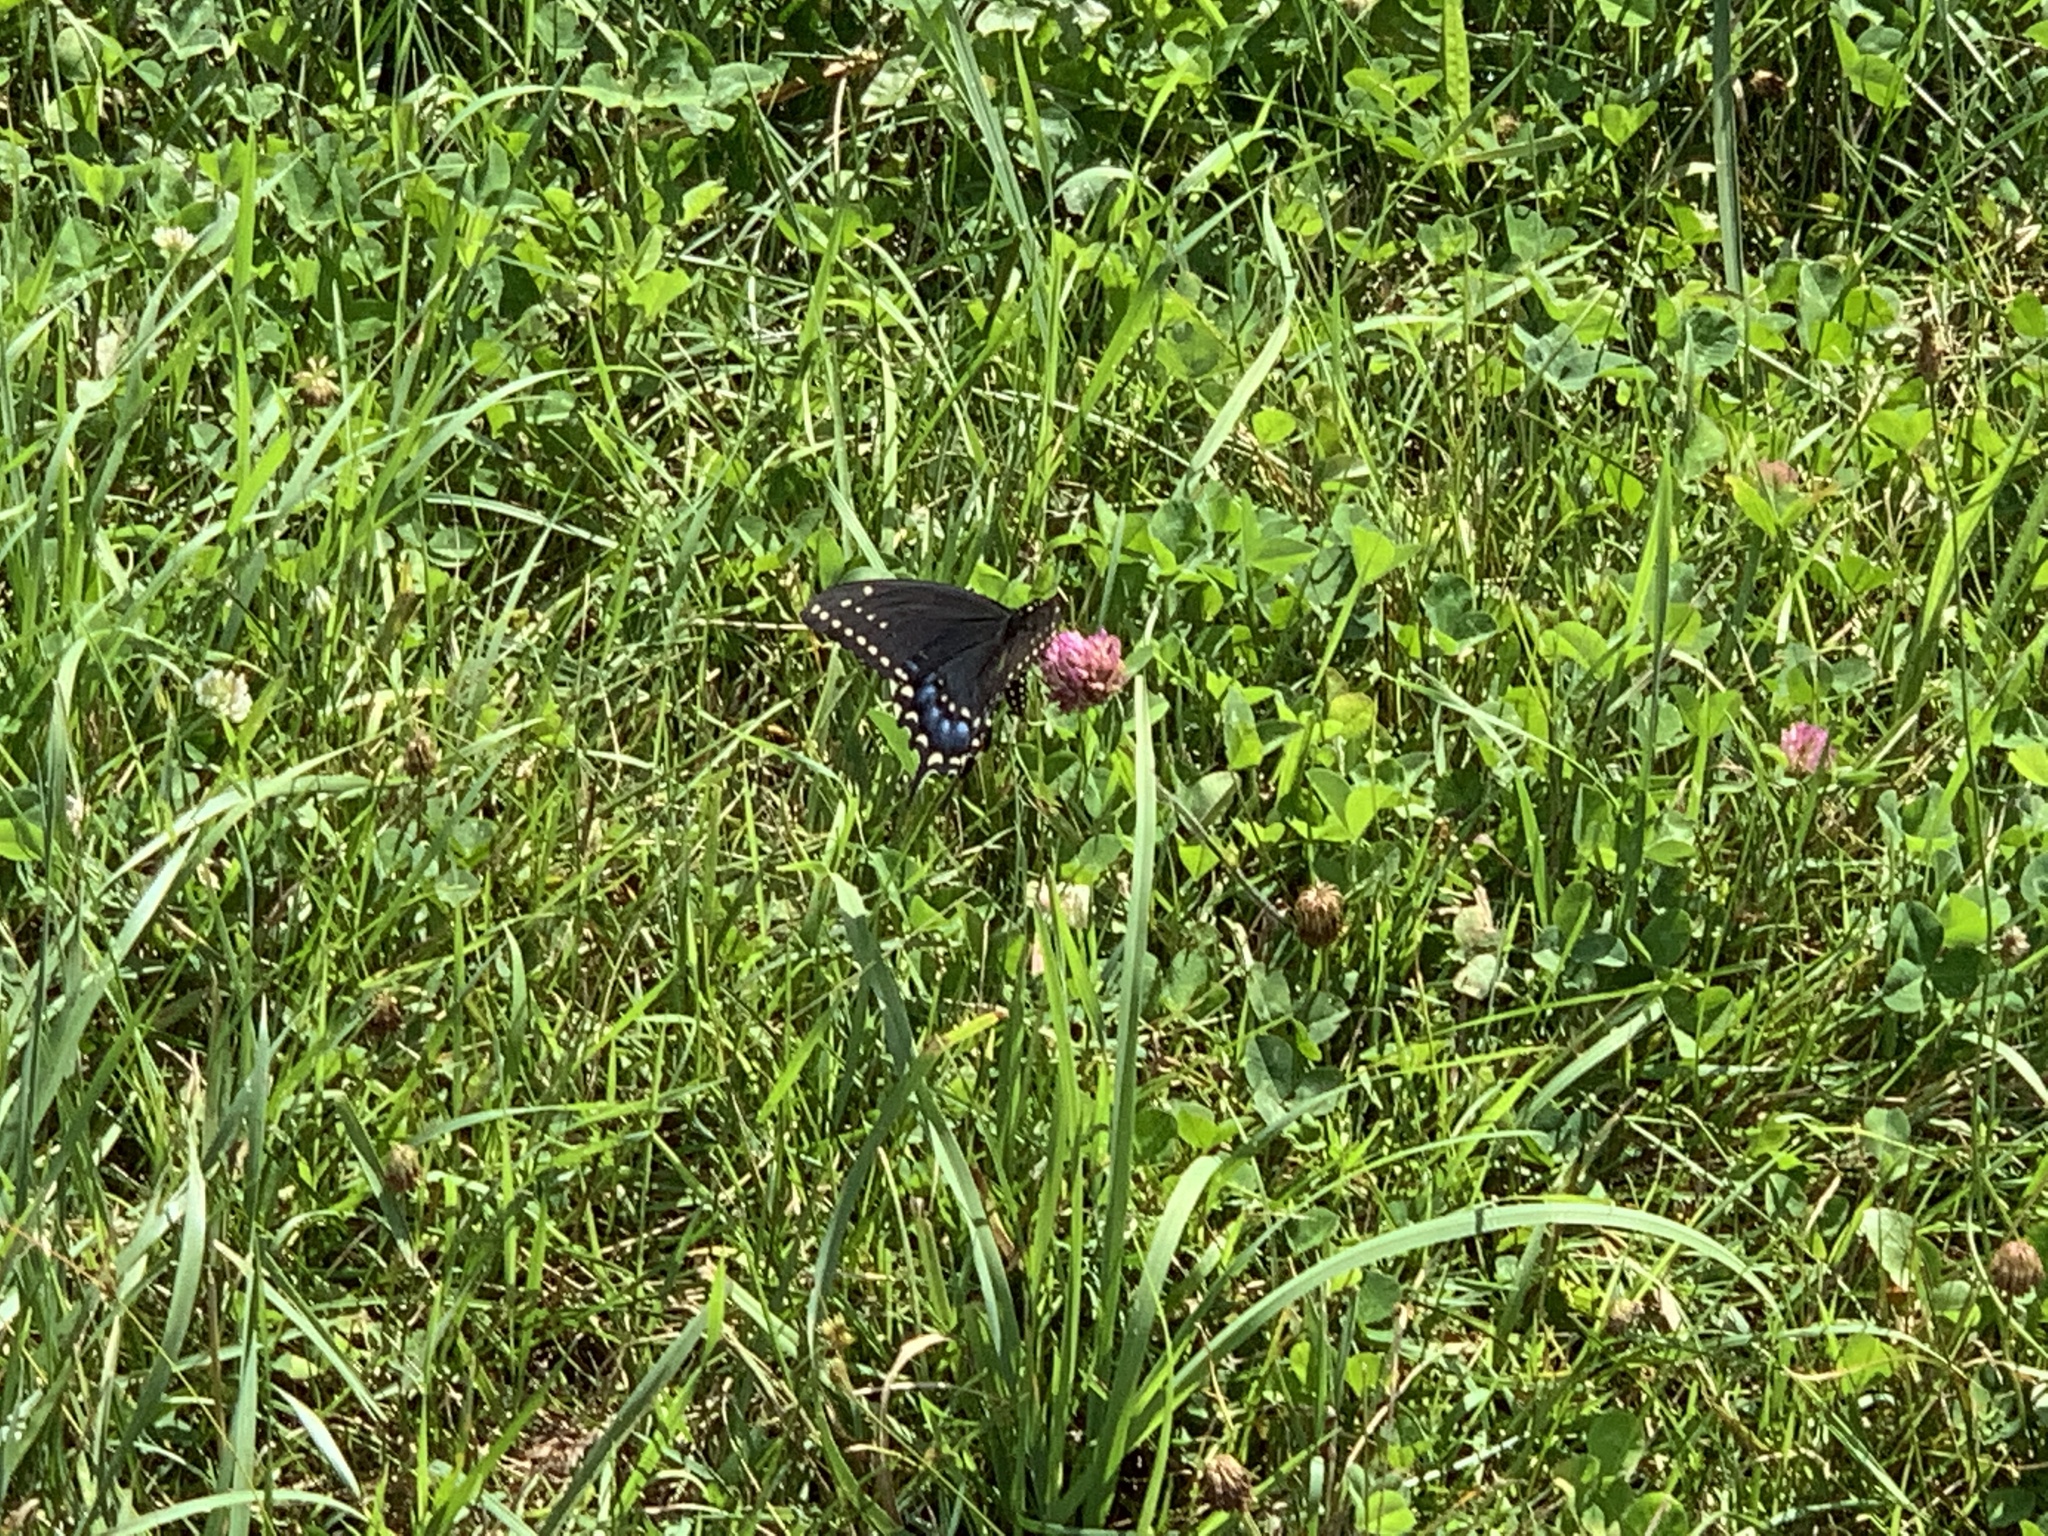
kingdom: Animalia
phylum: Arthropoda
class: Insecta
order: Lepidoptera
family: Papilionidae
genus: Papilio
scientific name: Papilio polyxenes
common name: Black swallowtail
